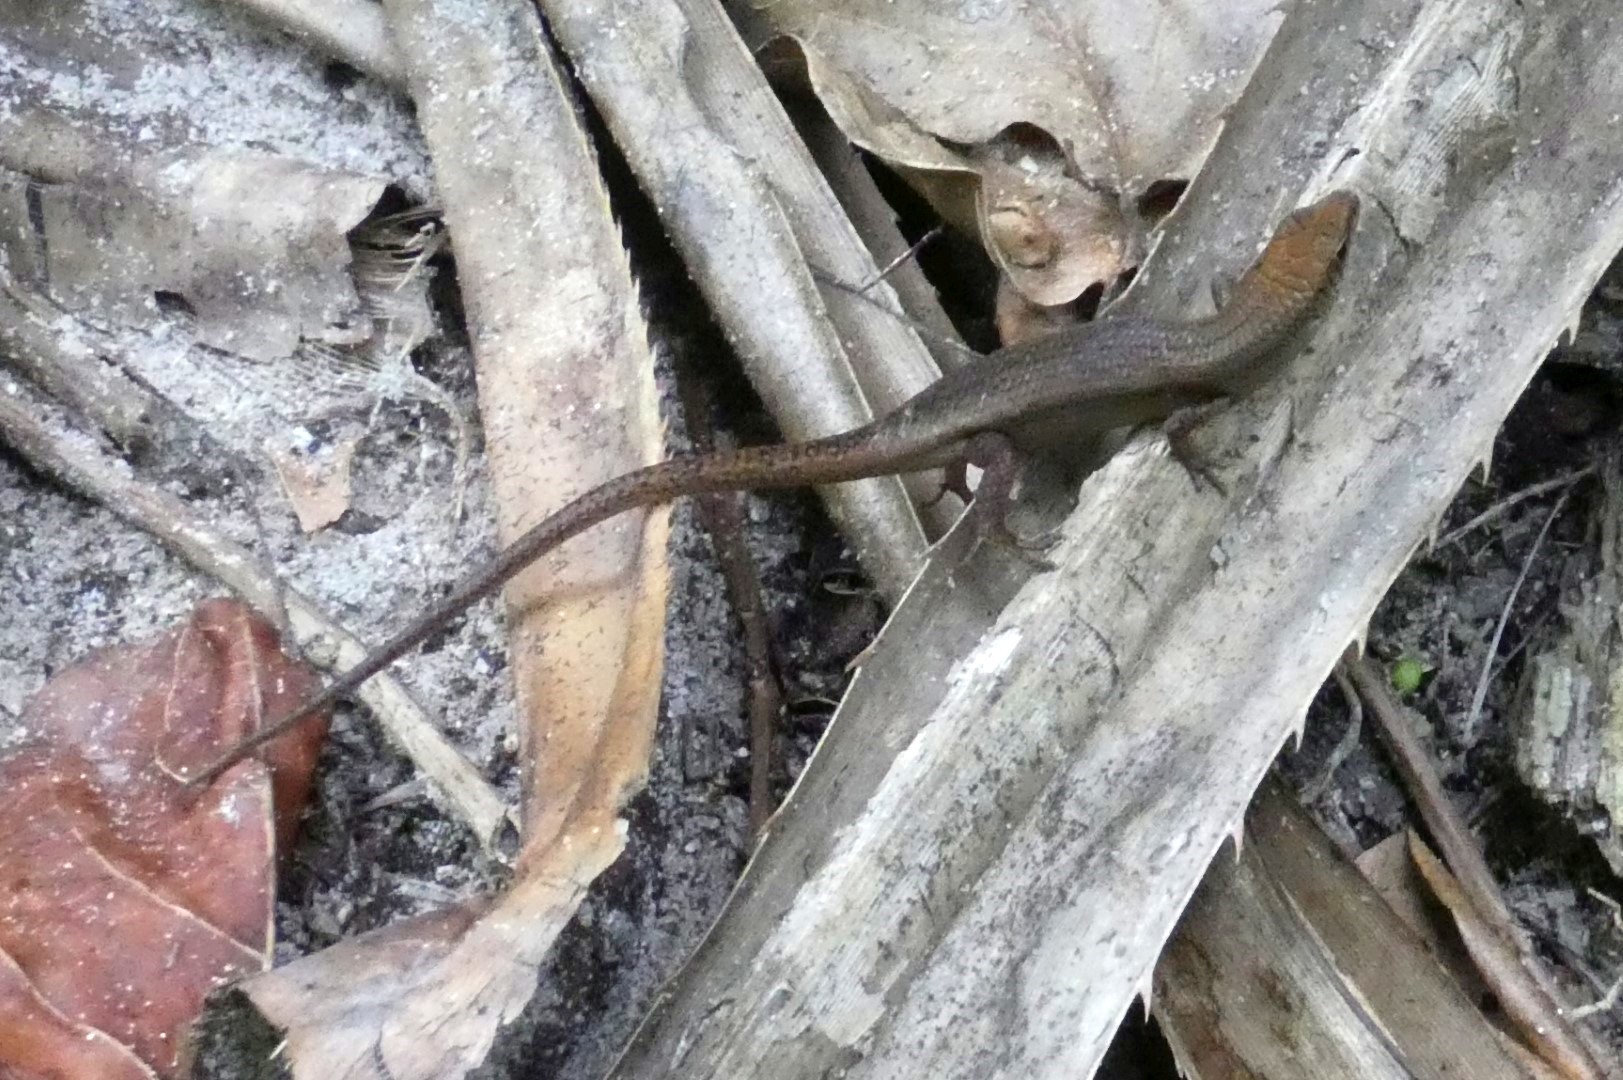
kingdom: Animalia
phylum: Chordata
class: Squamata
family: Scincidae
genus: Carlia
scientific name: Carlia fusca
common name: Brown four-fingered skink
